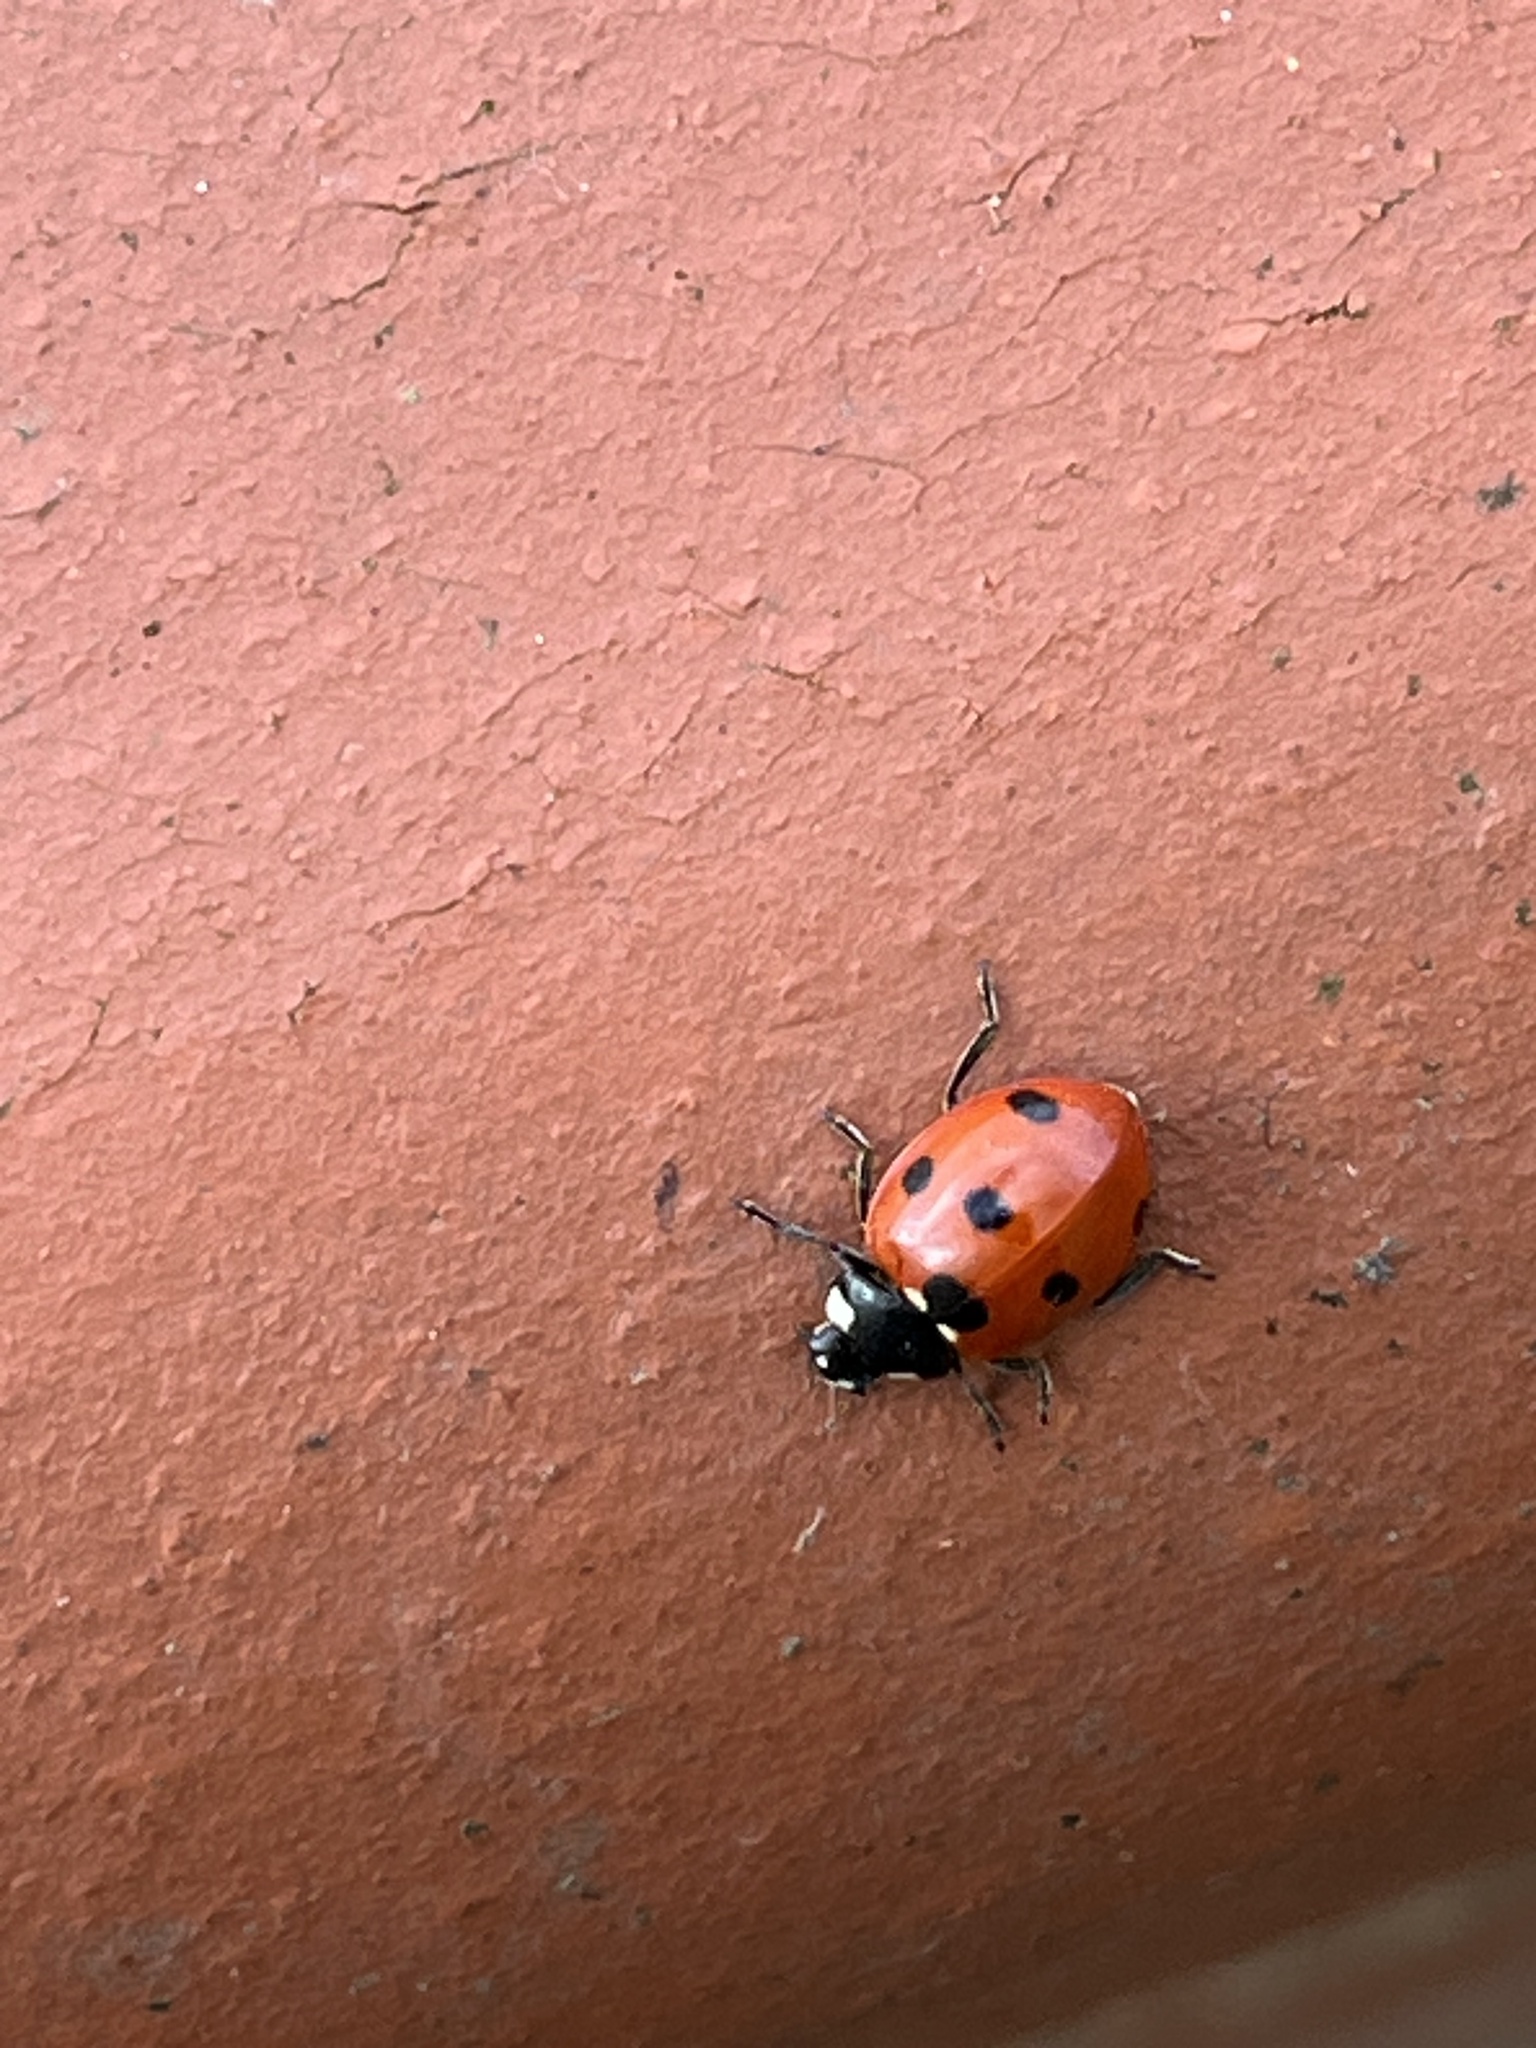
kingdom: Animalia
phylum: Arthropoda
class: Insecta
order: Coleoptera
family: Coccinellidae
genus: Coccinella
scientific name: Coccinella septempunctata
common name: Sevenspotted lady beetle
